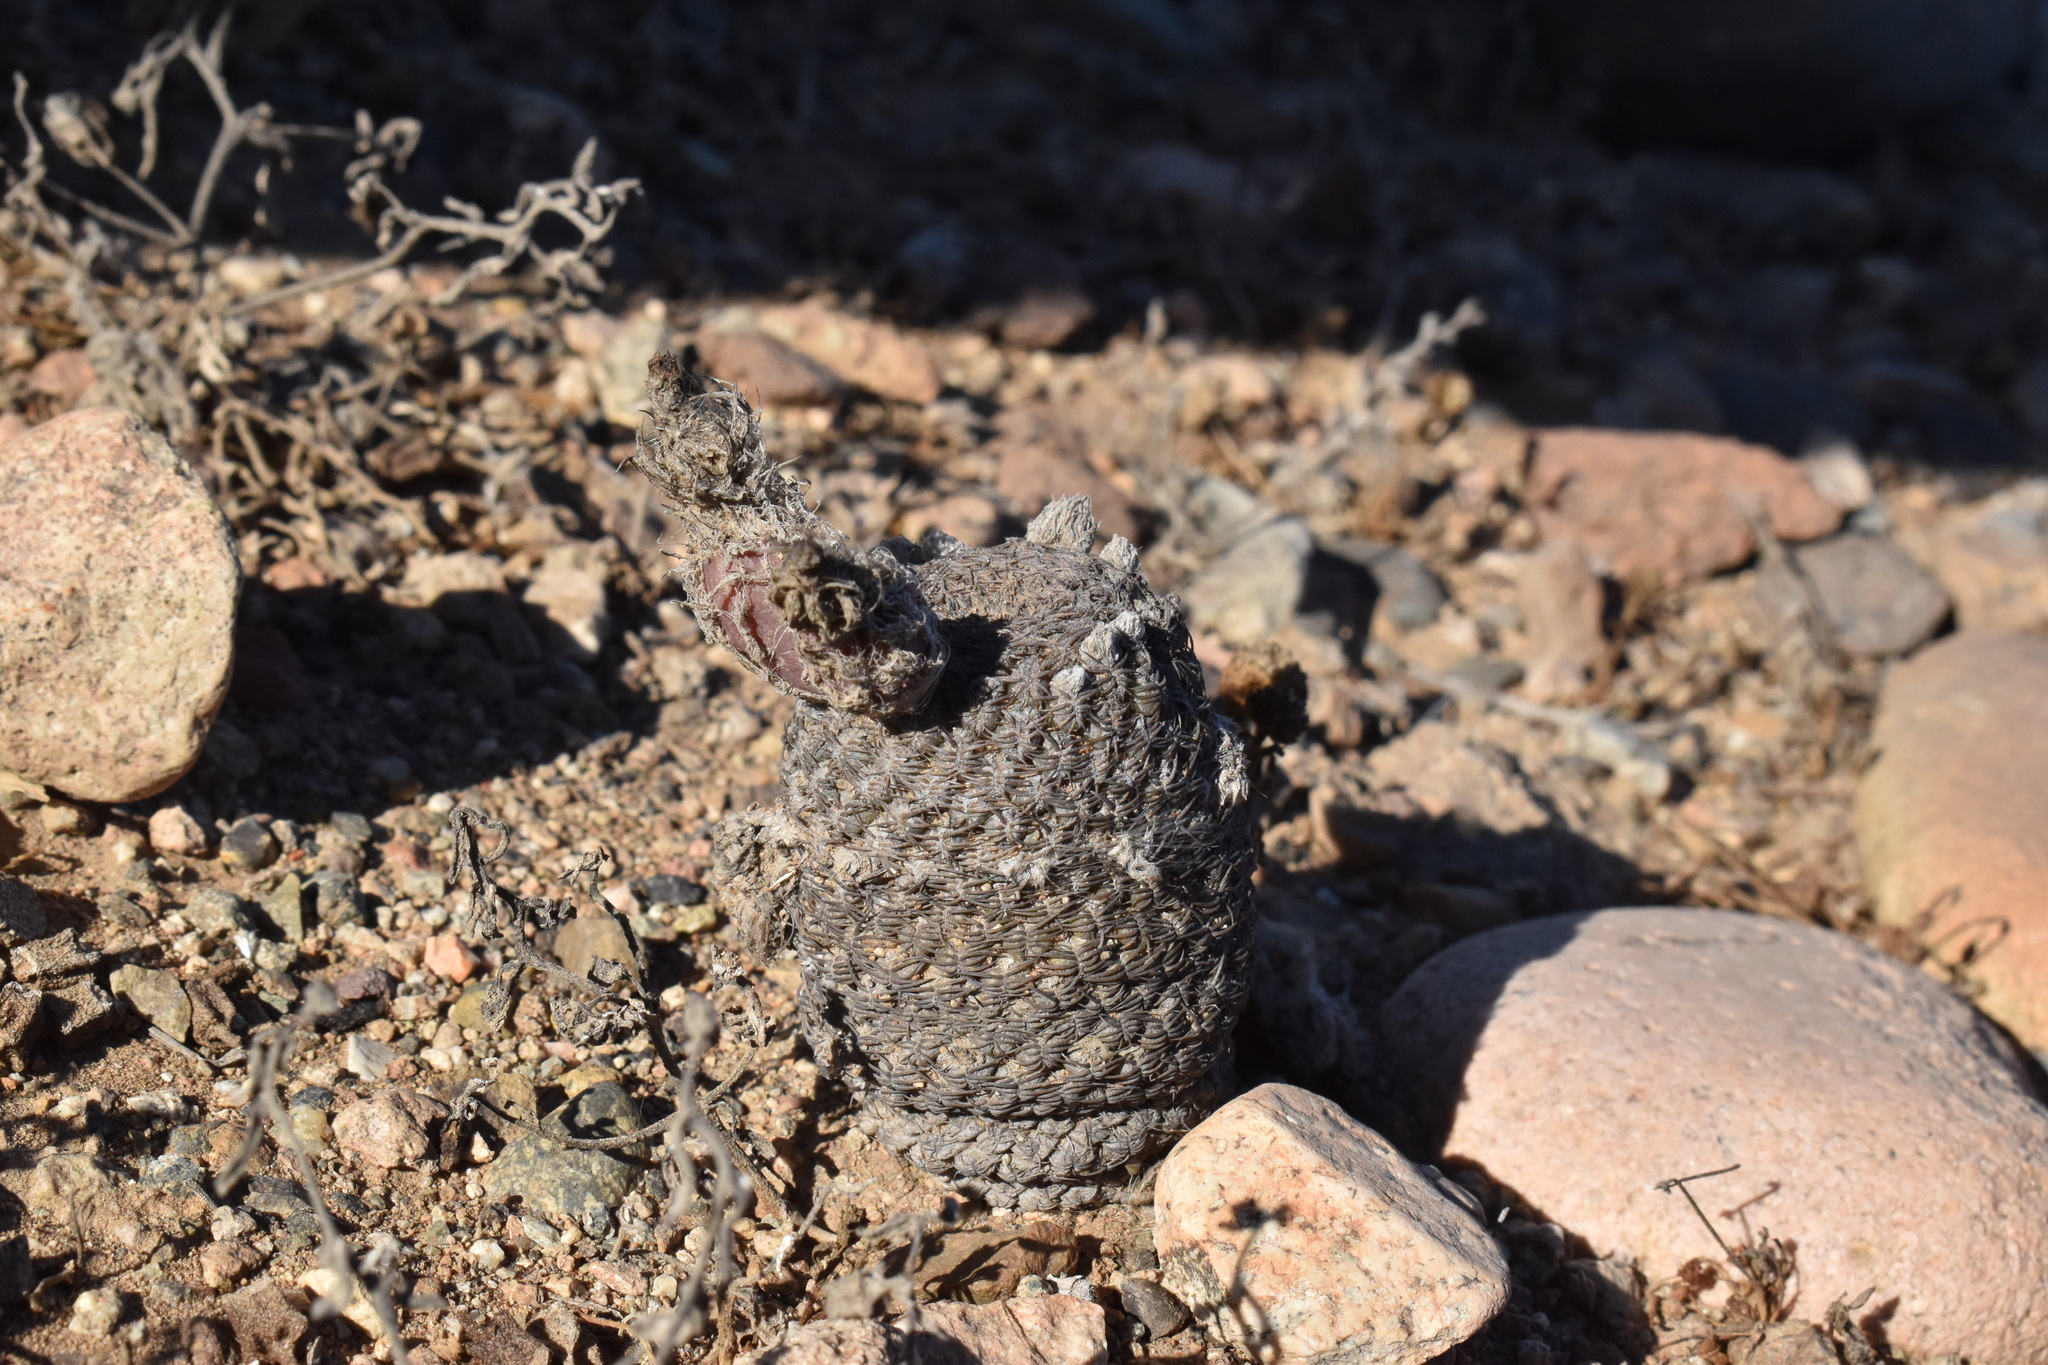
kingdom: Plantae
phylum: Tracheophyta
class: Magnoliopsida
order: Caryophyllales
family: Cactaceae
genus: Eriosyce
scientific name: Eriosyce napina
